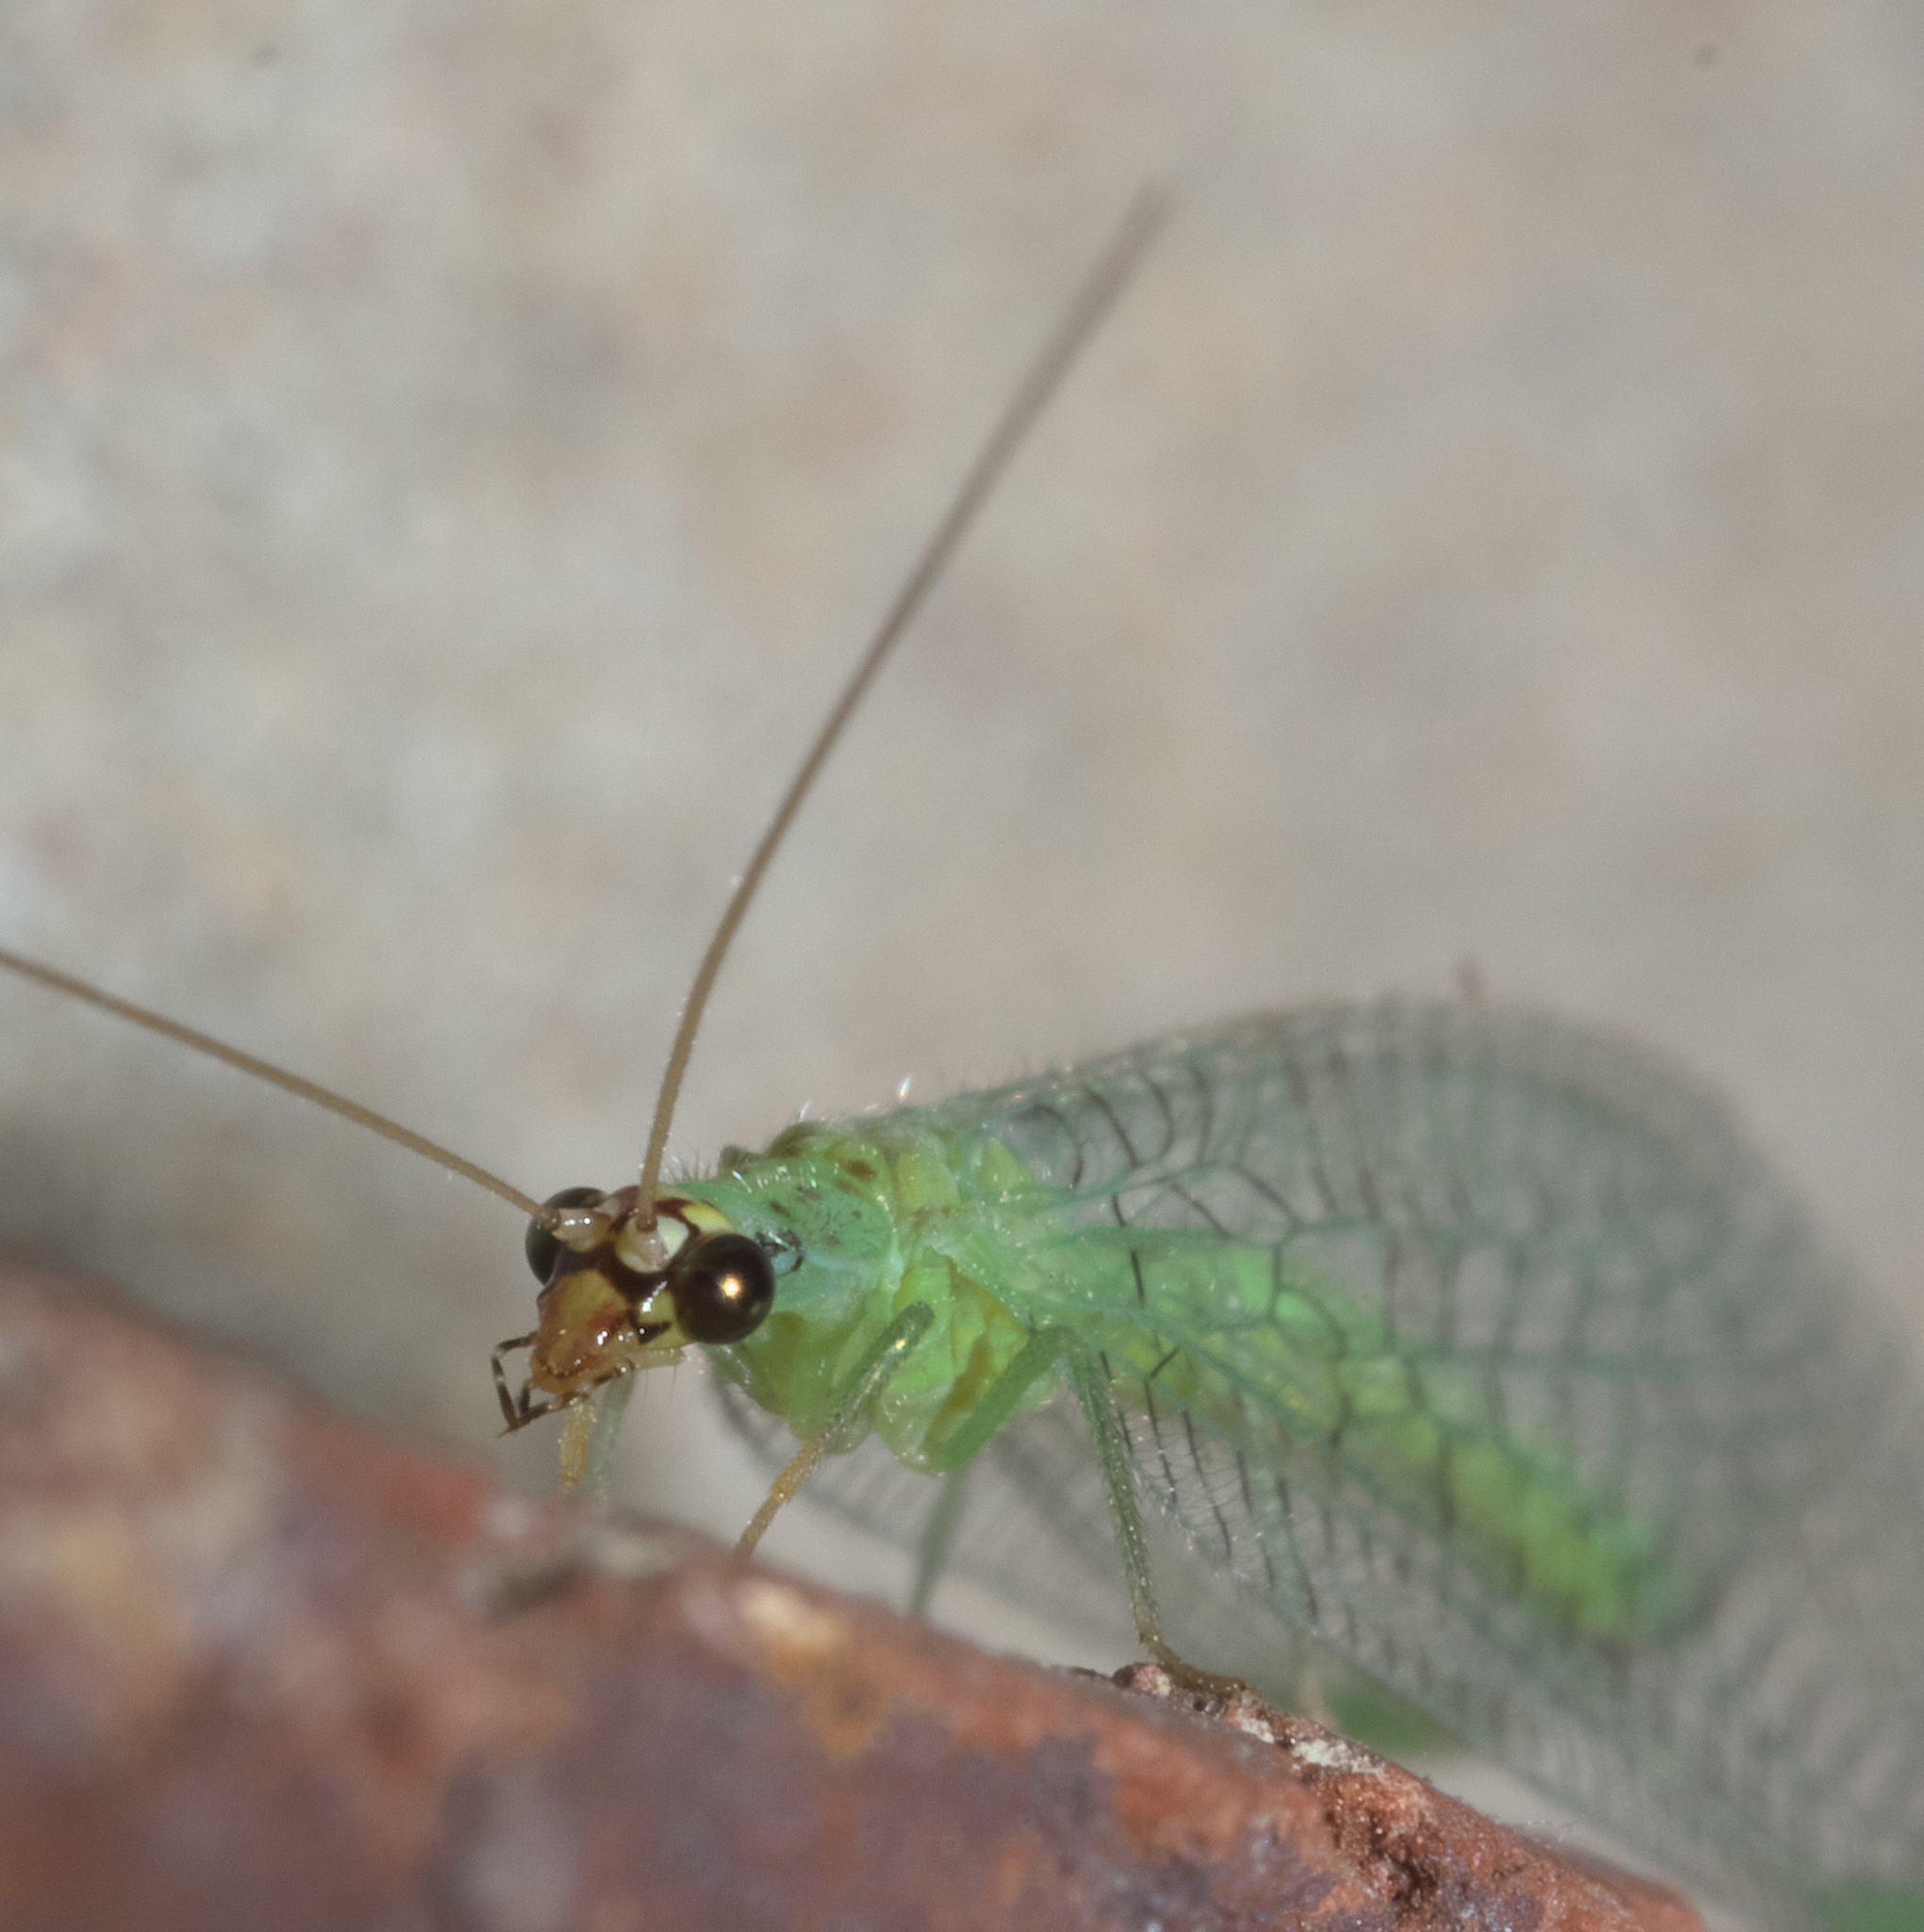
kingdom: Animalia
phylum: Arthropoda
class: Insecta
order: Neuroptera
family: Chrysopidae
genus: Chrysopa
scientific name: Chrysopa oculata
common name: Golden-eyed lacewing
